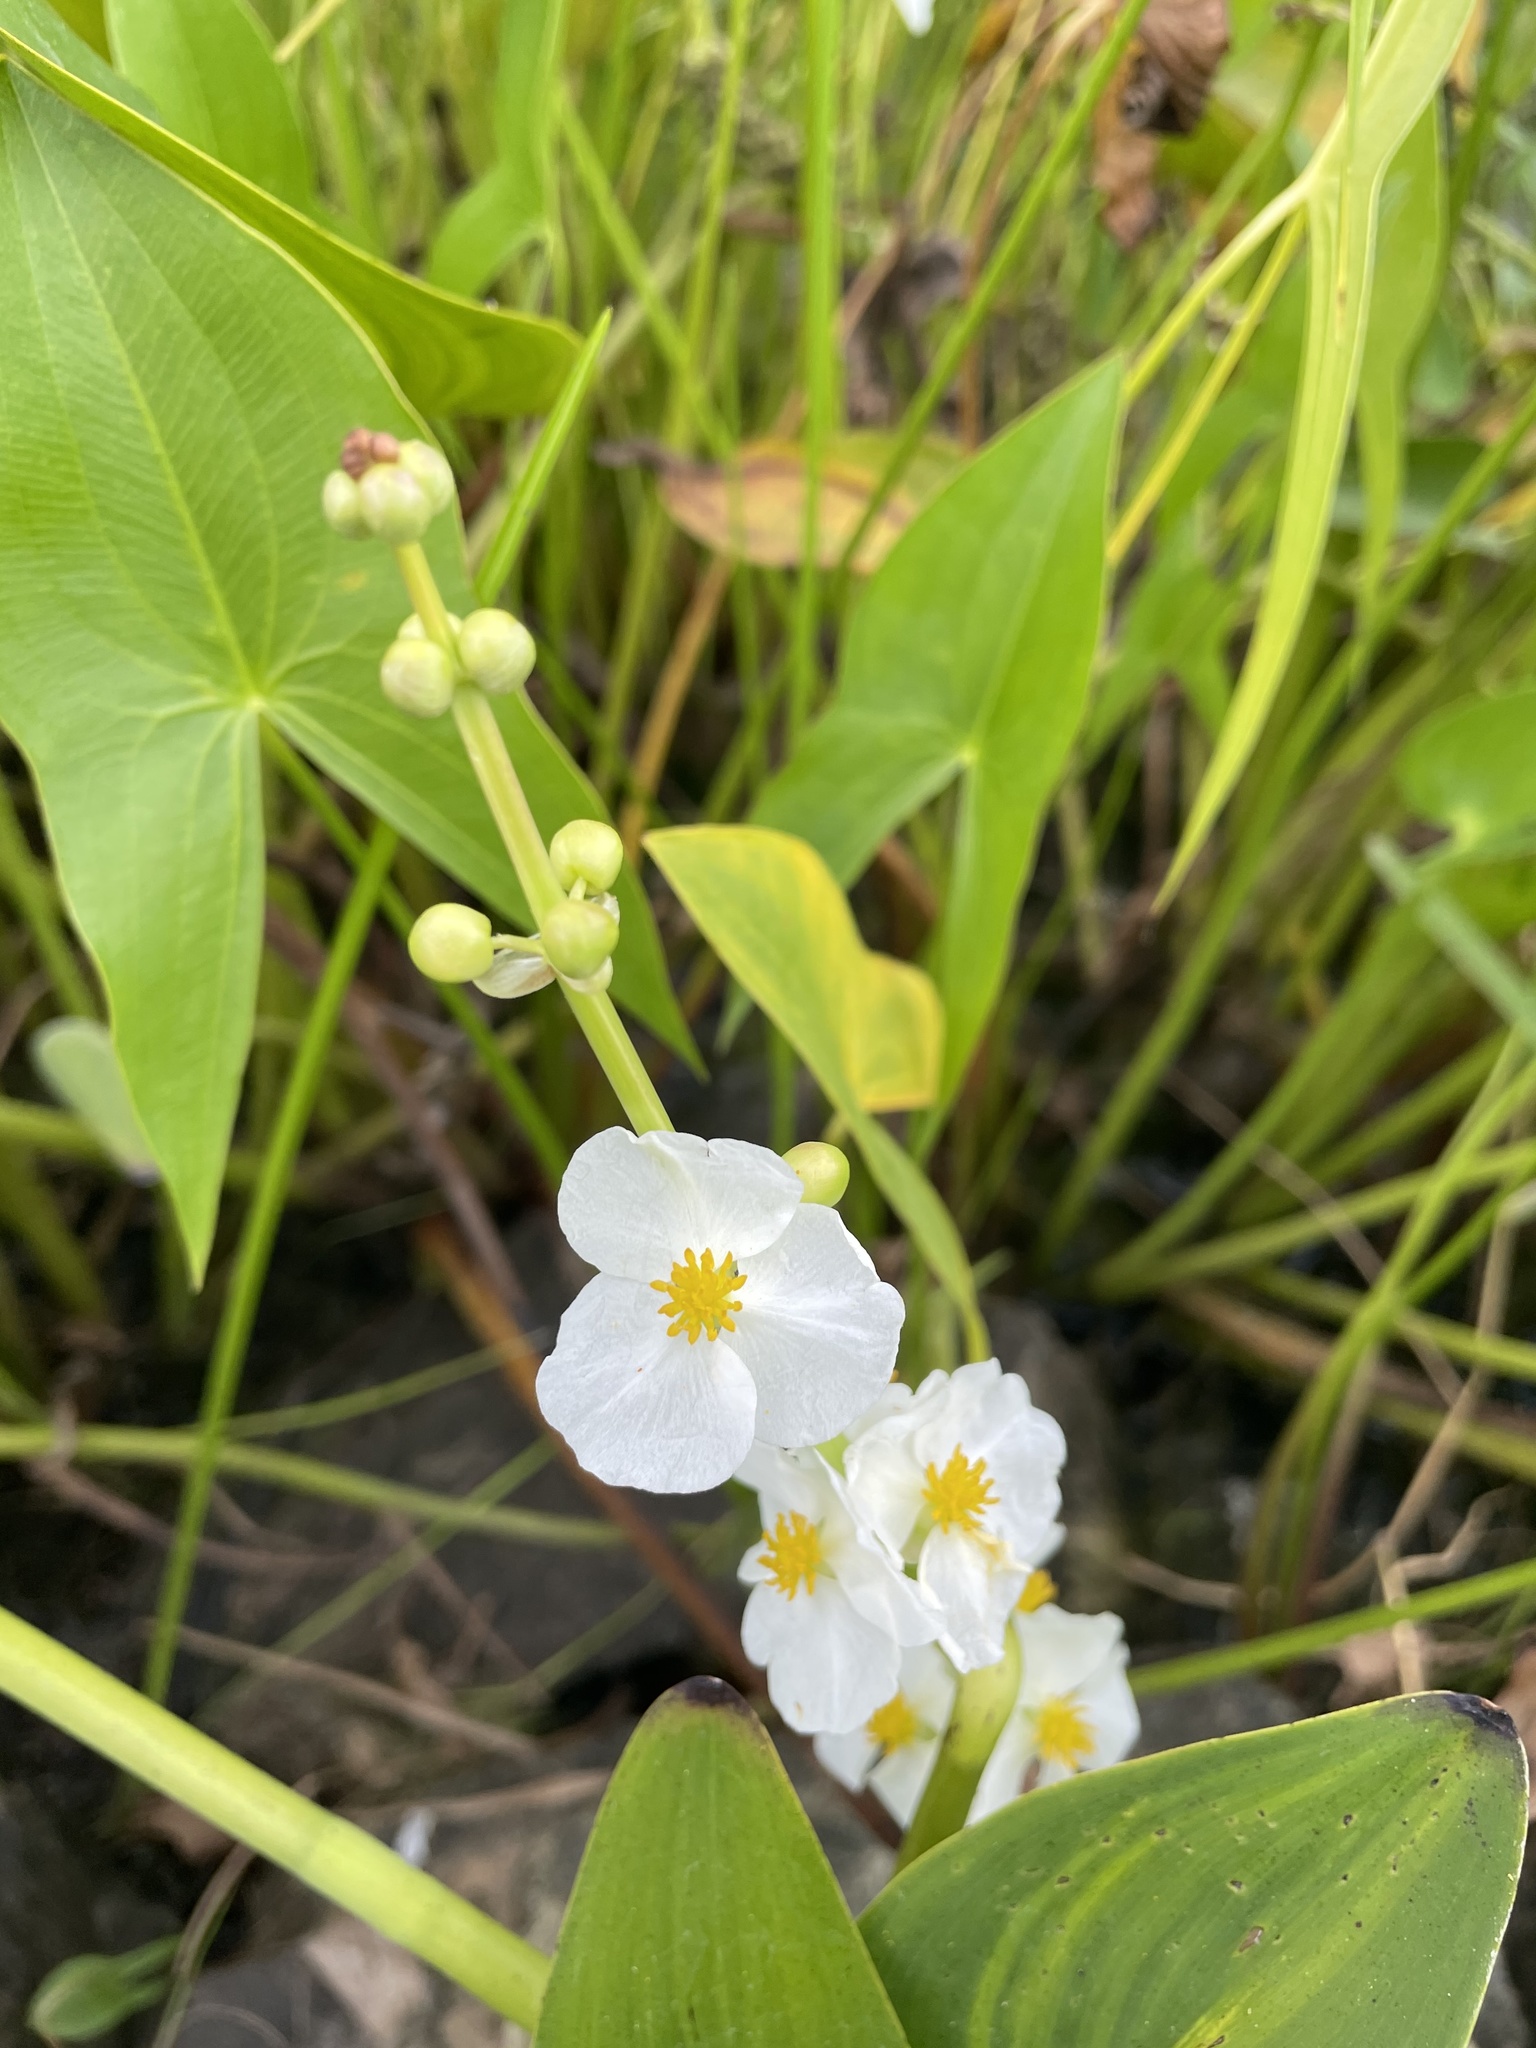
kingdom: Plantae
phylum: Tracheophyta
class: Liliopsida
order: Alismatales
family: Alismataceae
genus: Sagittaria
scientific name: Sagittaria latifolia
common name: Duck-potato
